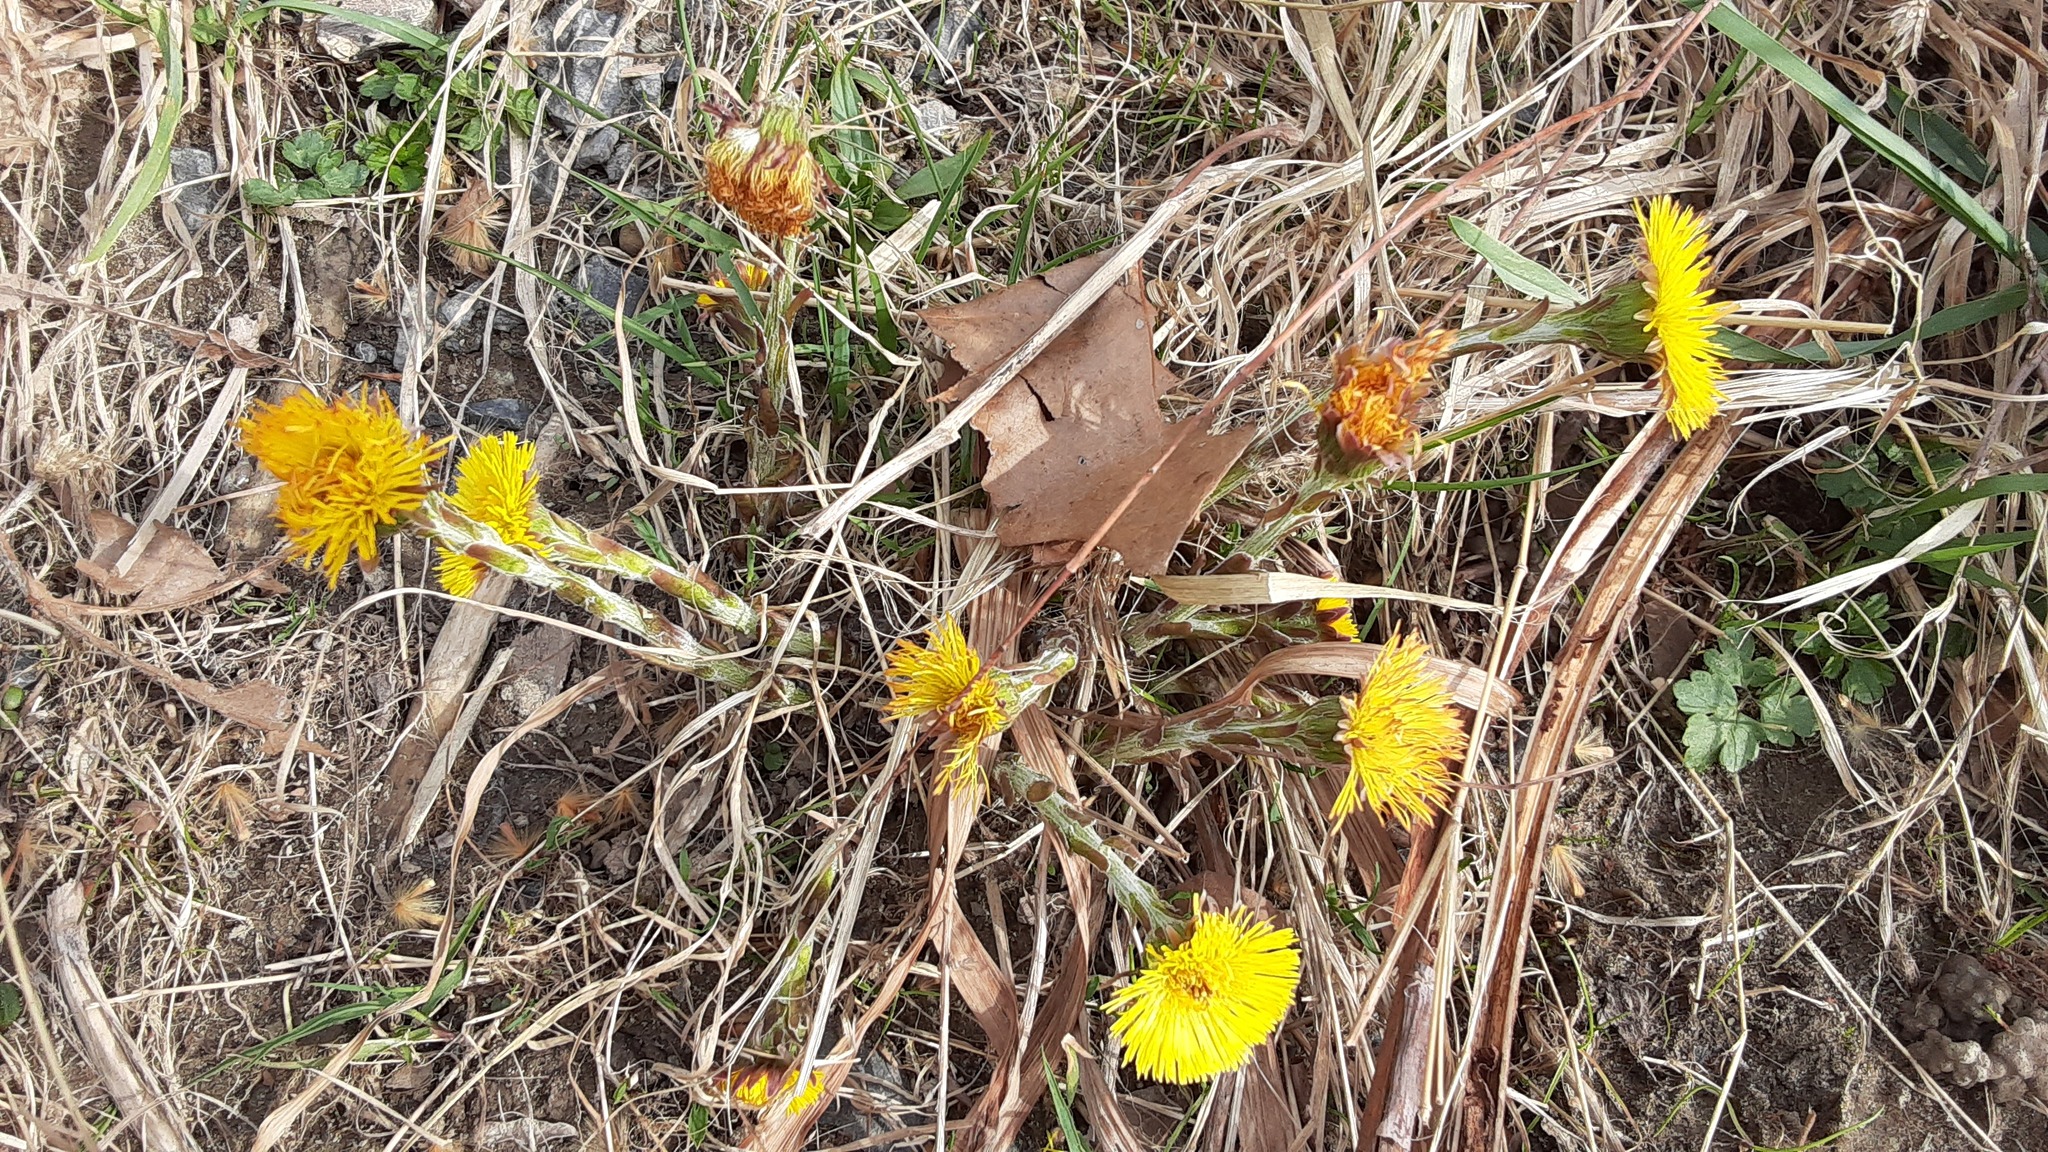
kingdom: Plantae
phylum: Tracheophyta
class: Magnoliopsida
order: Asterales
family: Asteraceae
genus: Tussilago
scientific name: Tussilago farfara
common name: Coltsfoot
